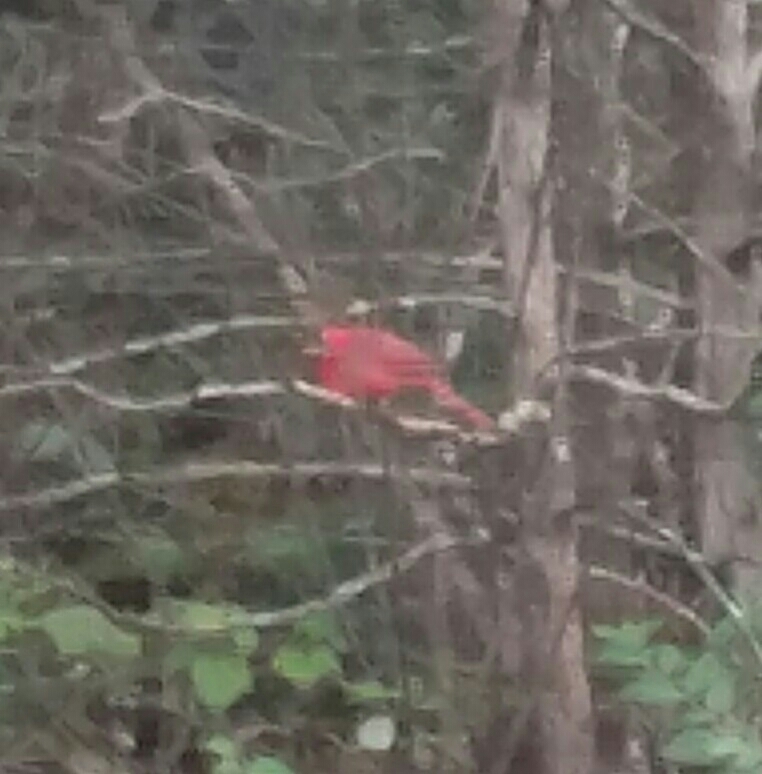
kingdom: Animalia
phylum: Chordata
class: Aves
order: Passeriformes
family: Cardinalidae
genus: Cardinalis
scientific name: Cardinalis cardinalis
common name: Northern cardinal
